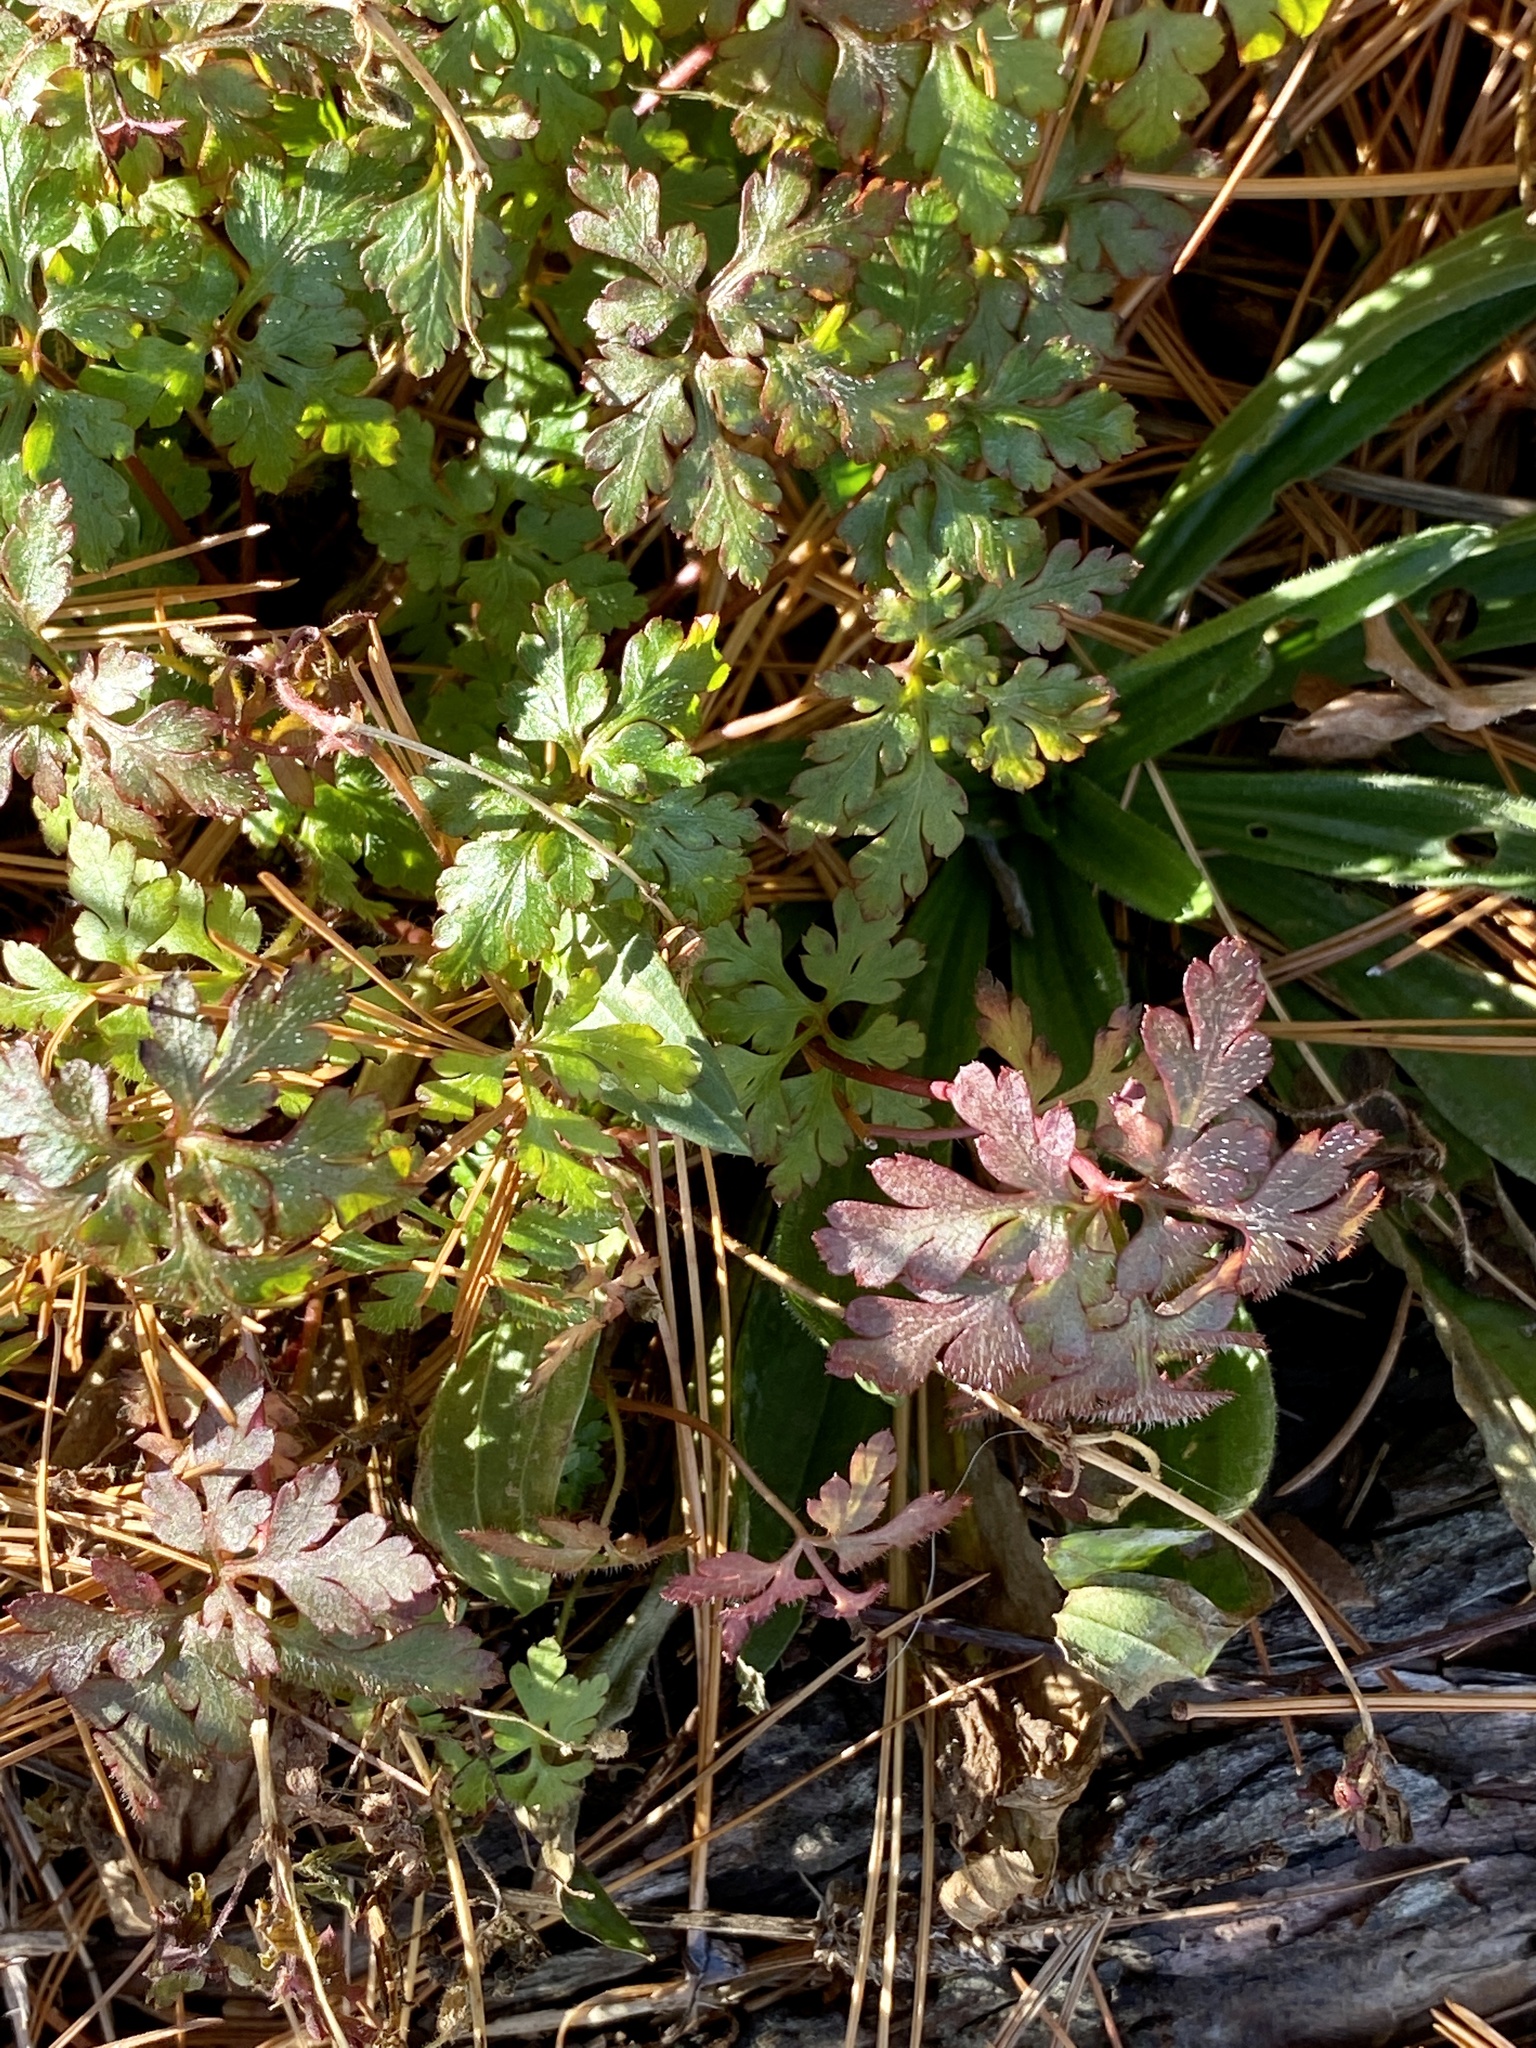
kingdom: Plantae
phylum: Tracheophyta
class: Magnoliopsida
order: Geraniales
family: Geraniaceae
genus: Geranium
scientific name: Geranium robertianum
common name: Herb-robert
